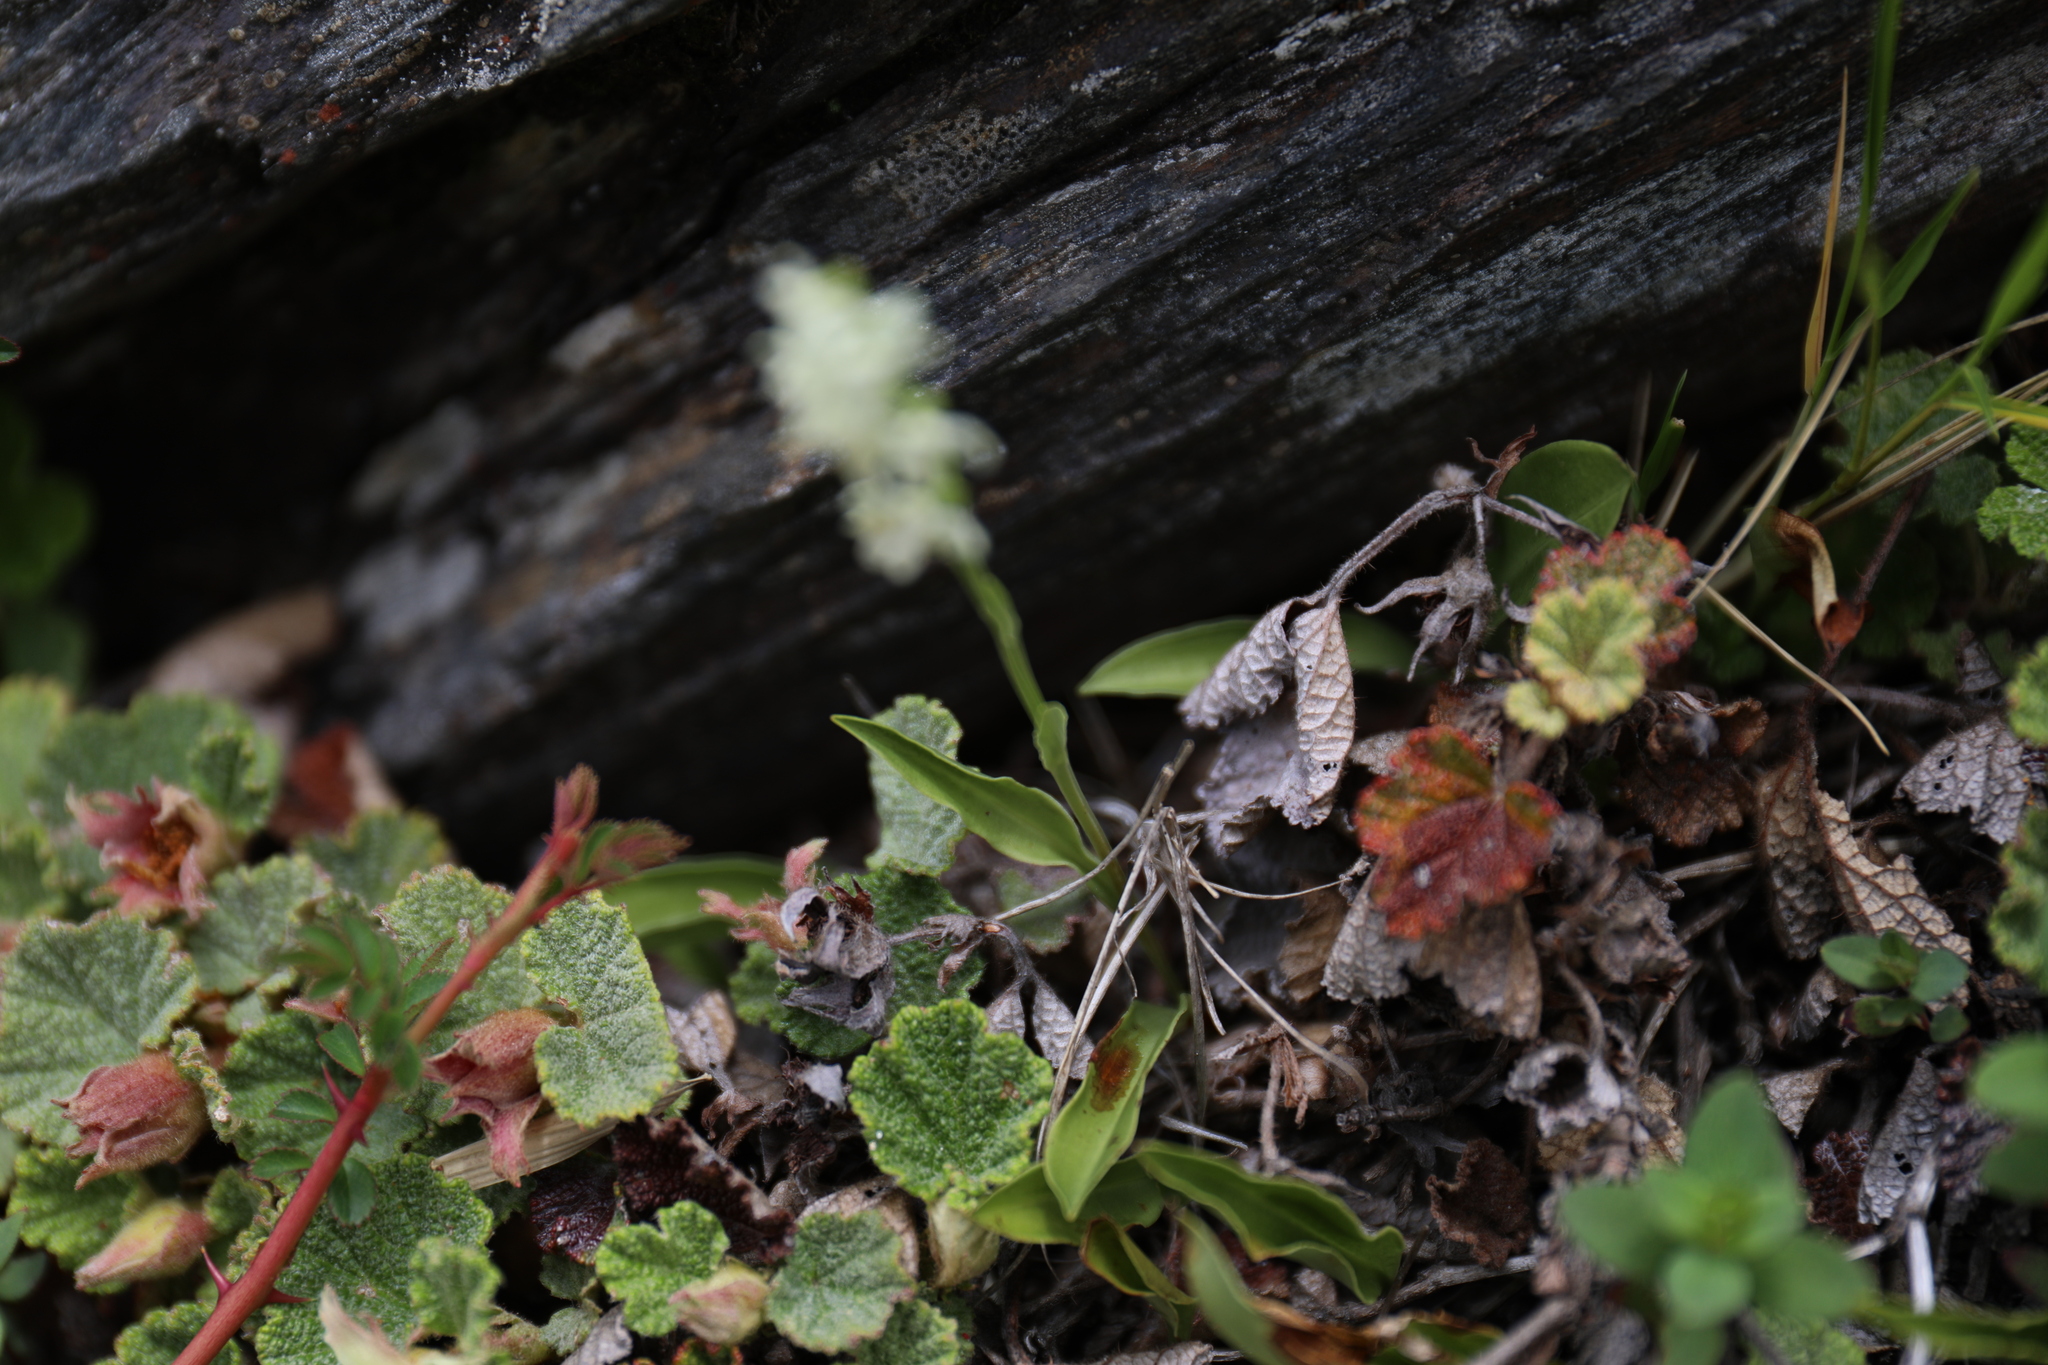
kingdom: Plantae
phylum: Tracheophyta
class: Liliopsida
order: Asparagales
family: Orchidaceae
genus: Platanthera
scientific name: Platanthera brevicalcarata
